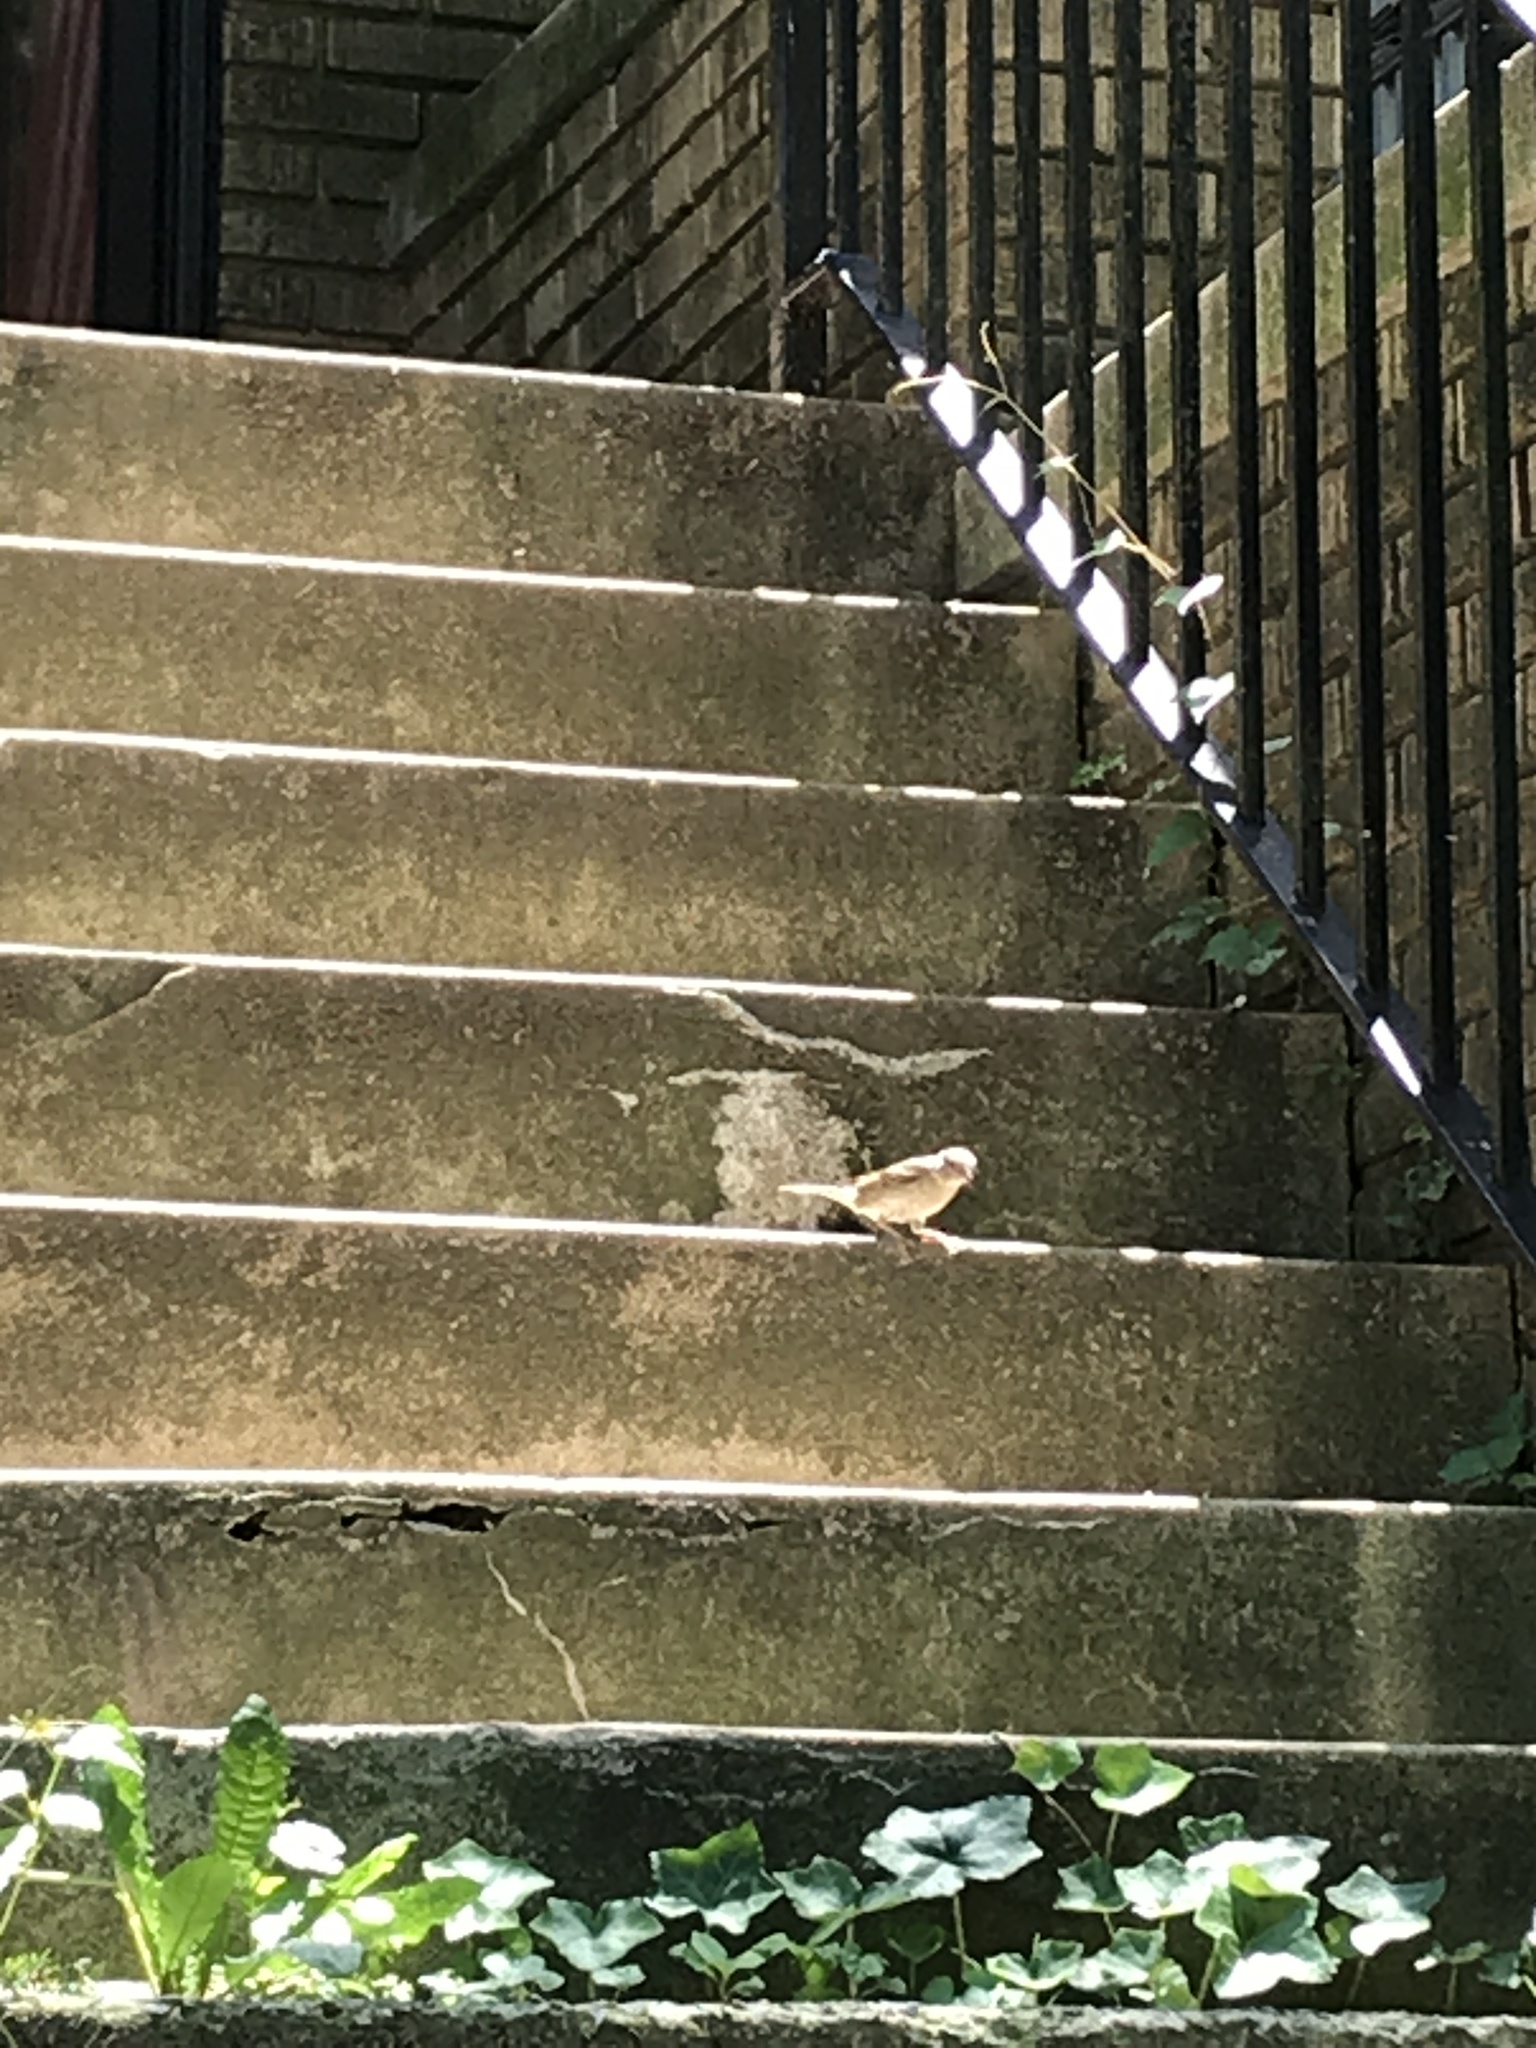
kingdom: Animalia
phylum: Chordata
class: Aves
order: Passeriformes
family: Passeridae
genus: Passer
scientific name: Passer domesticus
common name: House sparrow
